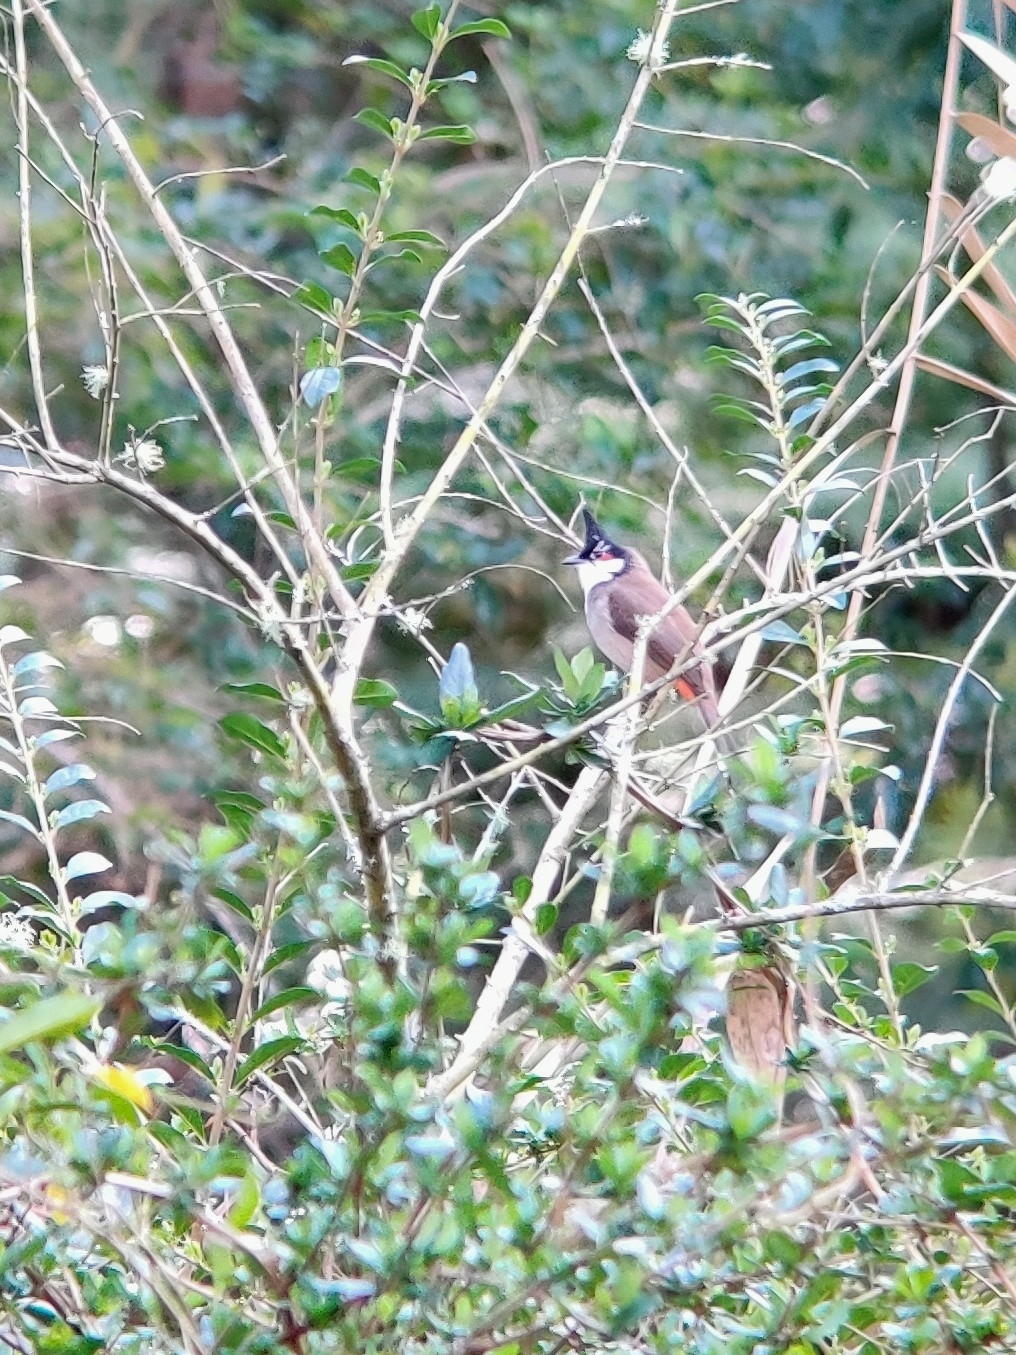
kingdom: Animalia
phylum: Chordata
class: Aves
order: Passeriformes
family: Pycnonotidae
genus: Pycnonotus
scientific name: Pycnonotus jocosus
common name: Red-whiskered bulbul
